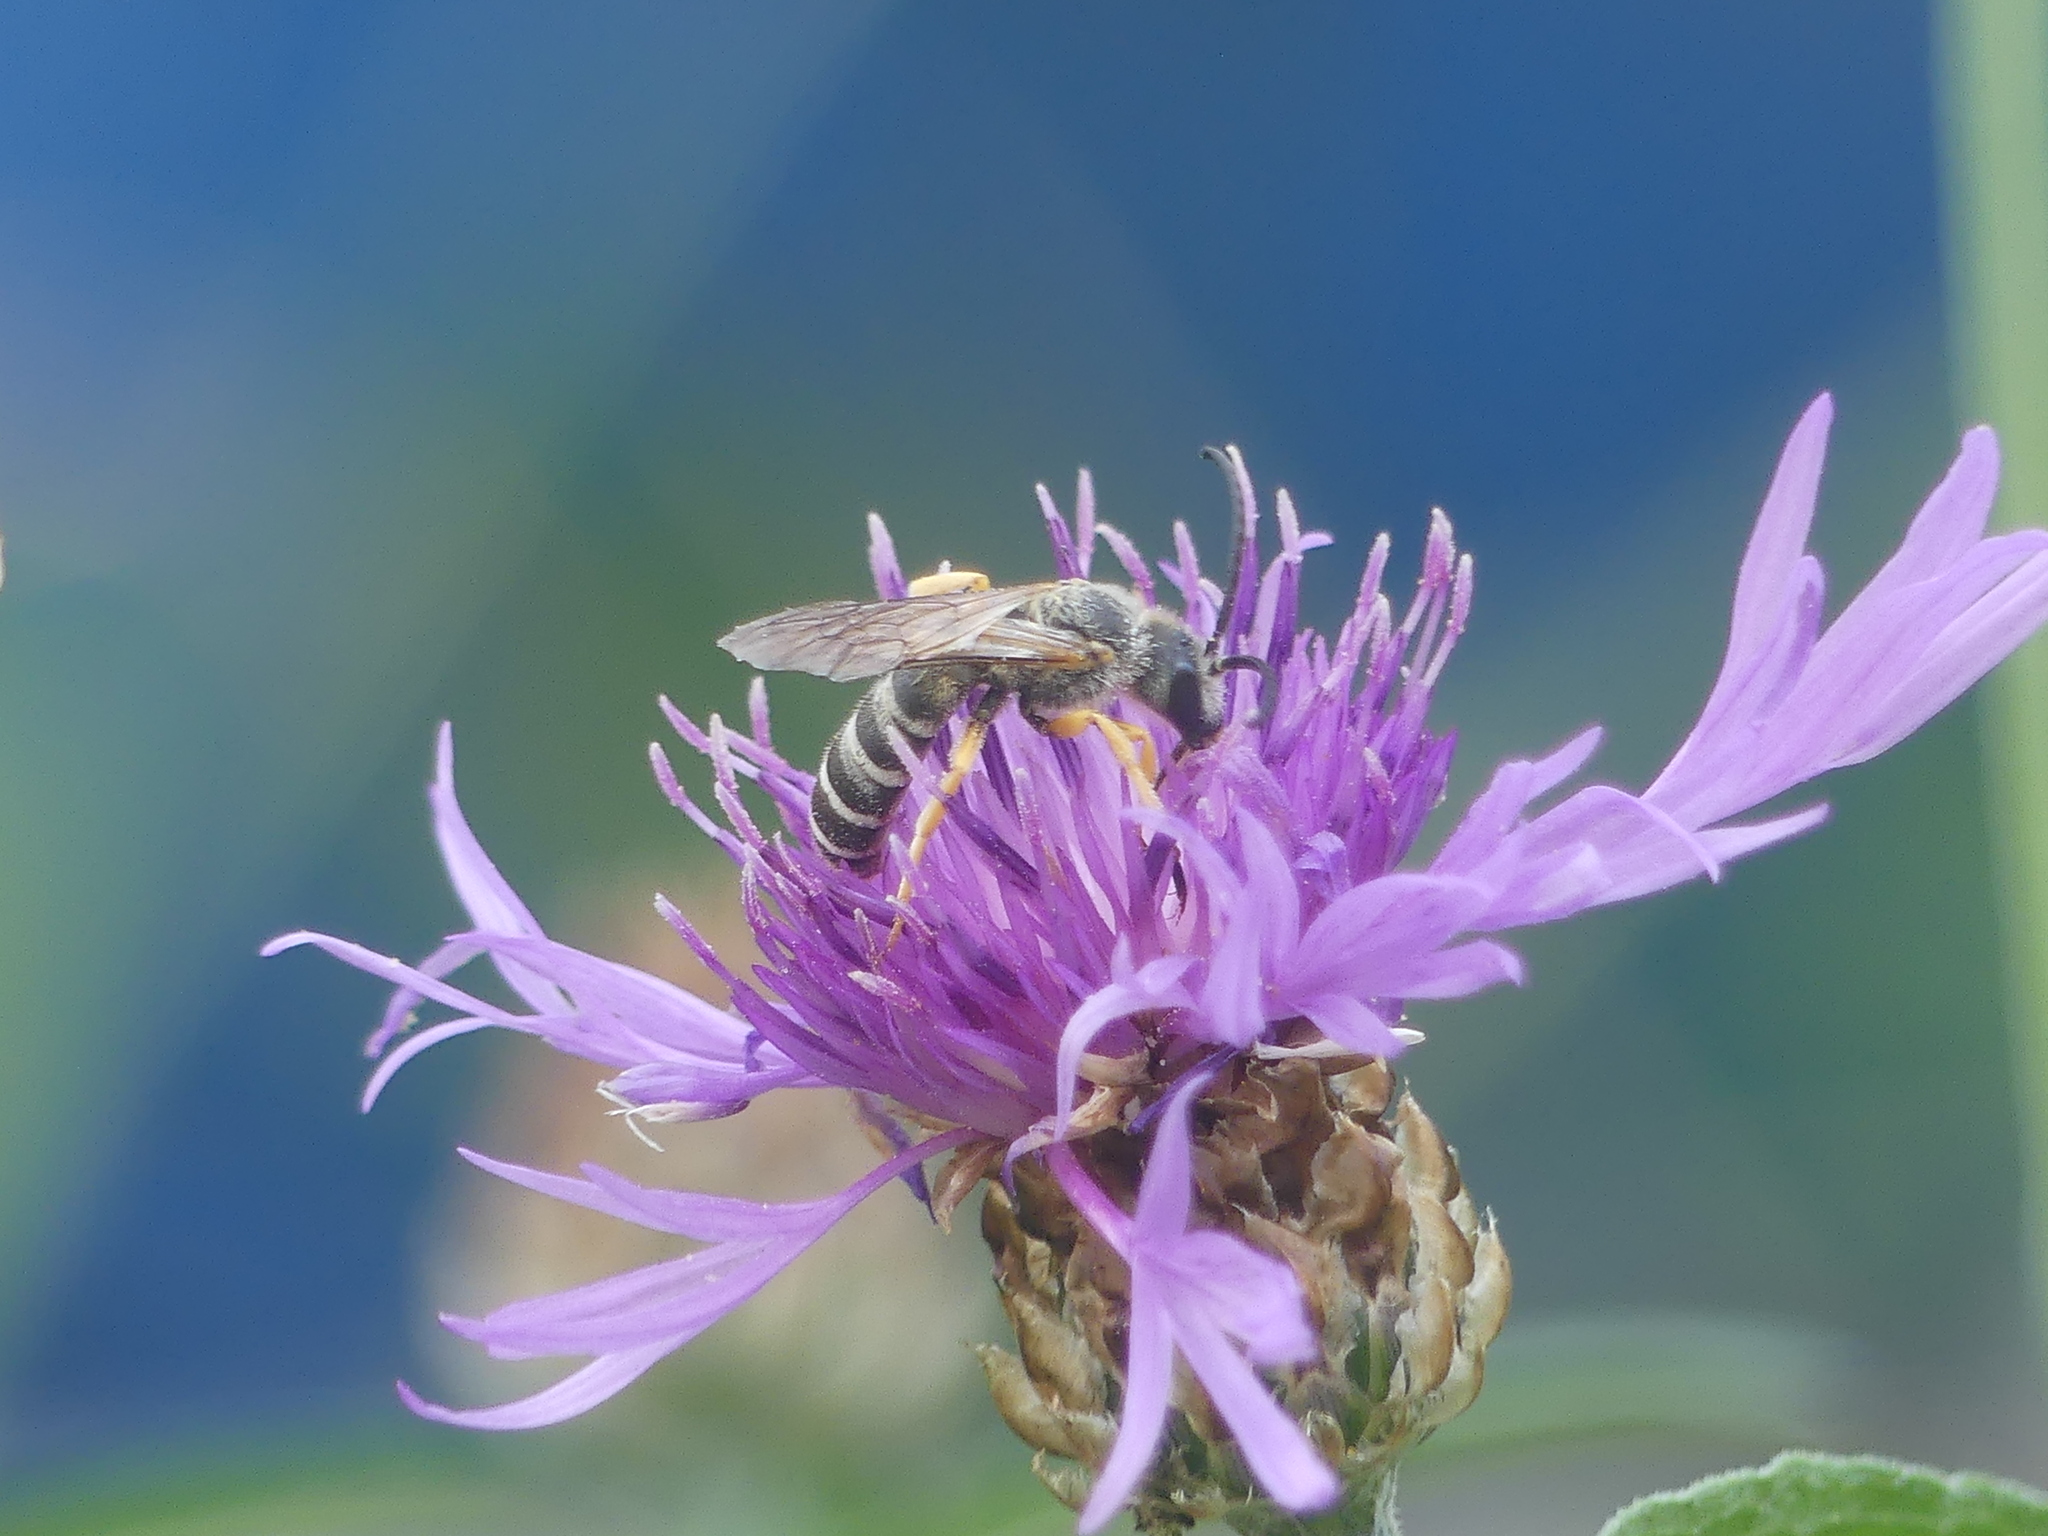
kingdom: Animalia
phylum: Arthropoda
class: Insecta
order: Hymenoptera
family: Halictidae
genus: Halictus
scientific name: Halictus scabiosae
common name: Great banded furrow bee
